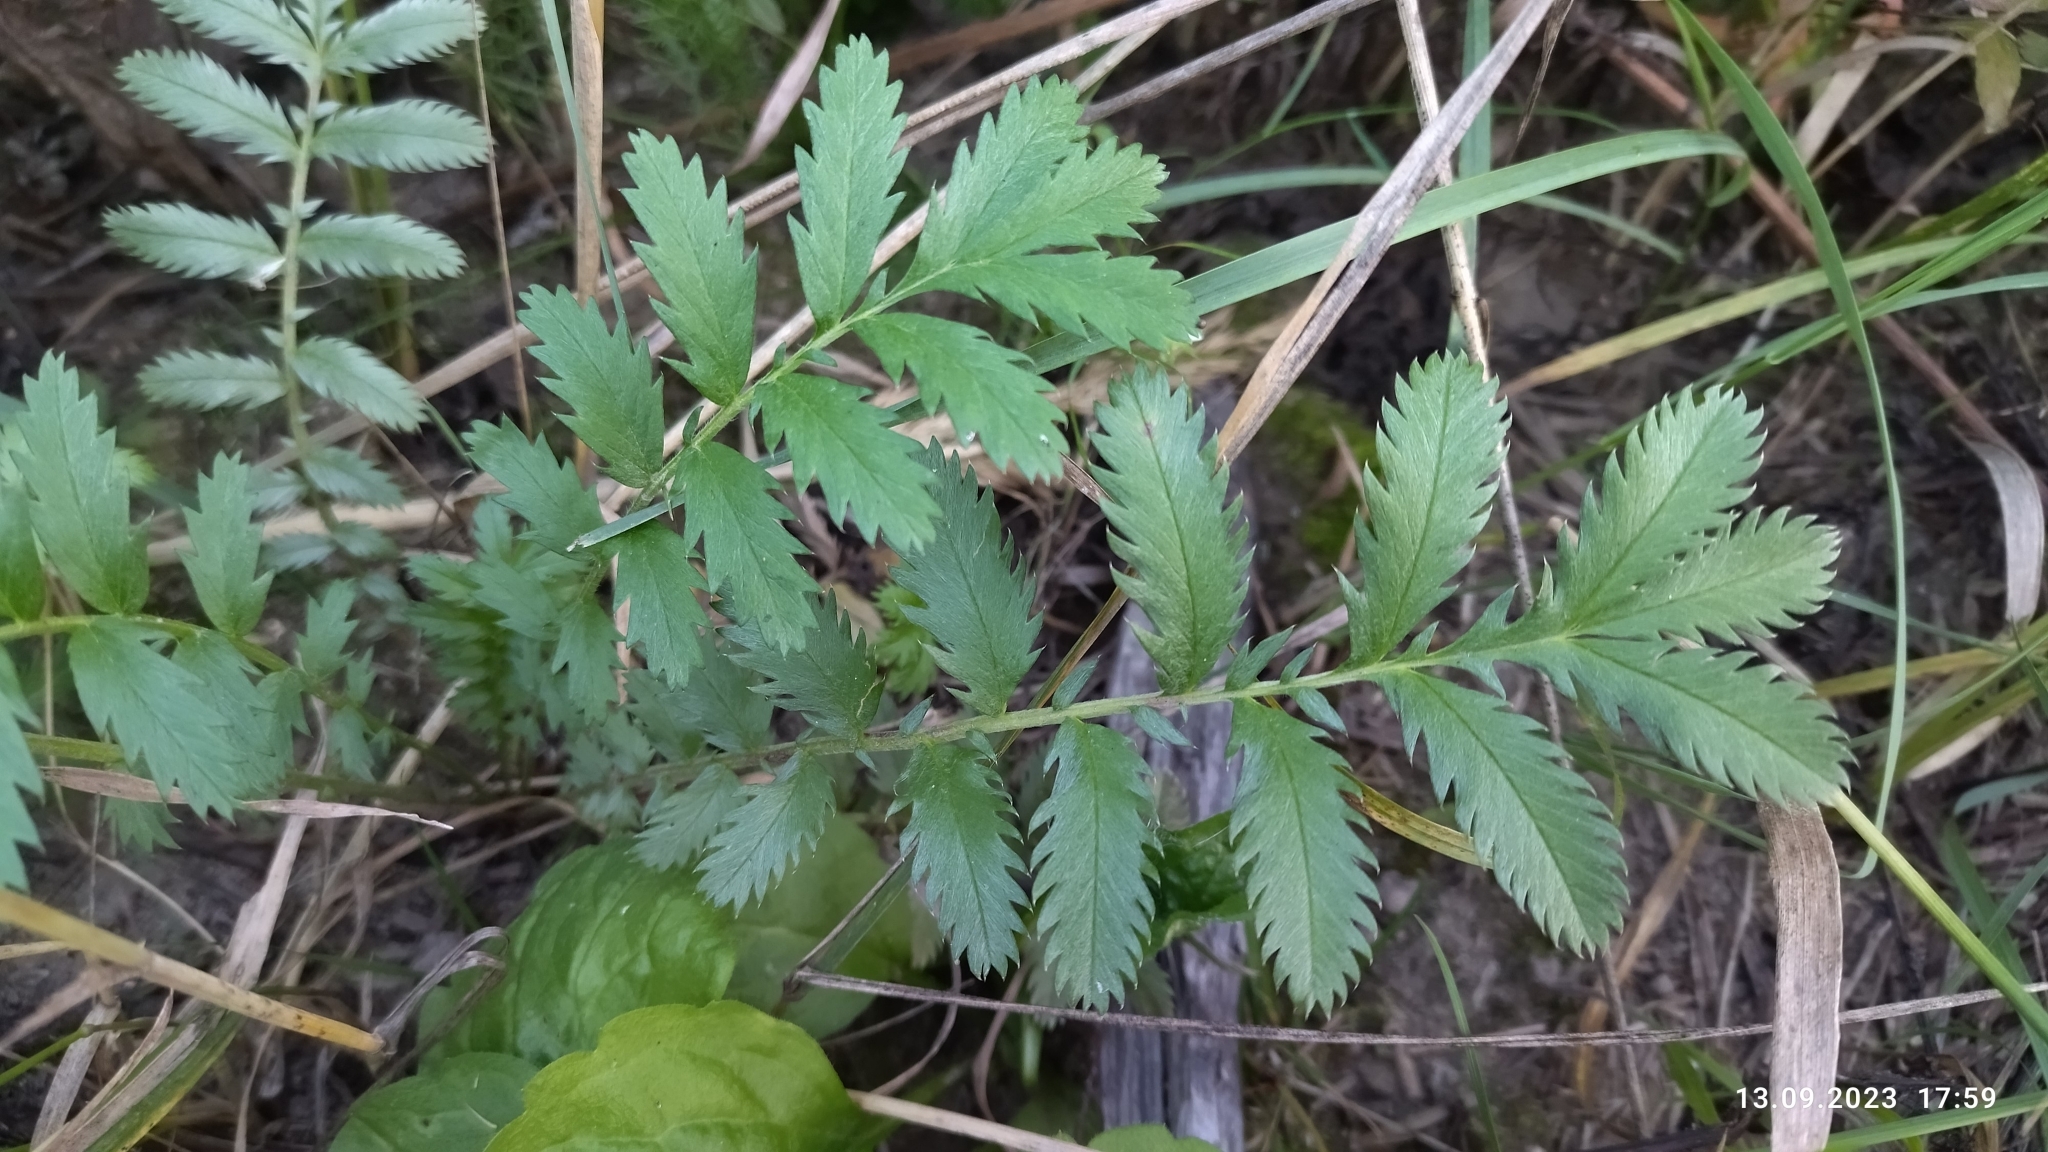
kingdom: Plantae
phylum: Tracheophyta
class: Magnoliopsida
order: Rosales
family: Rosaceae
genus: Argentina
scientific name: Argentina anserina
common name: Common silverweed
